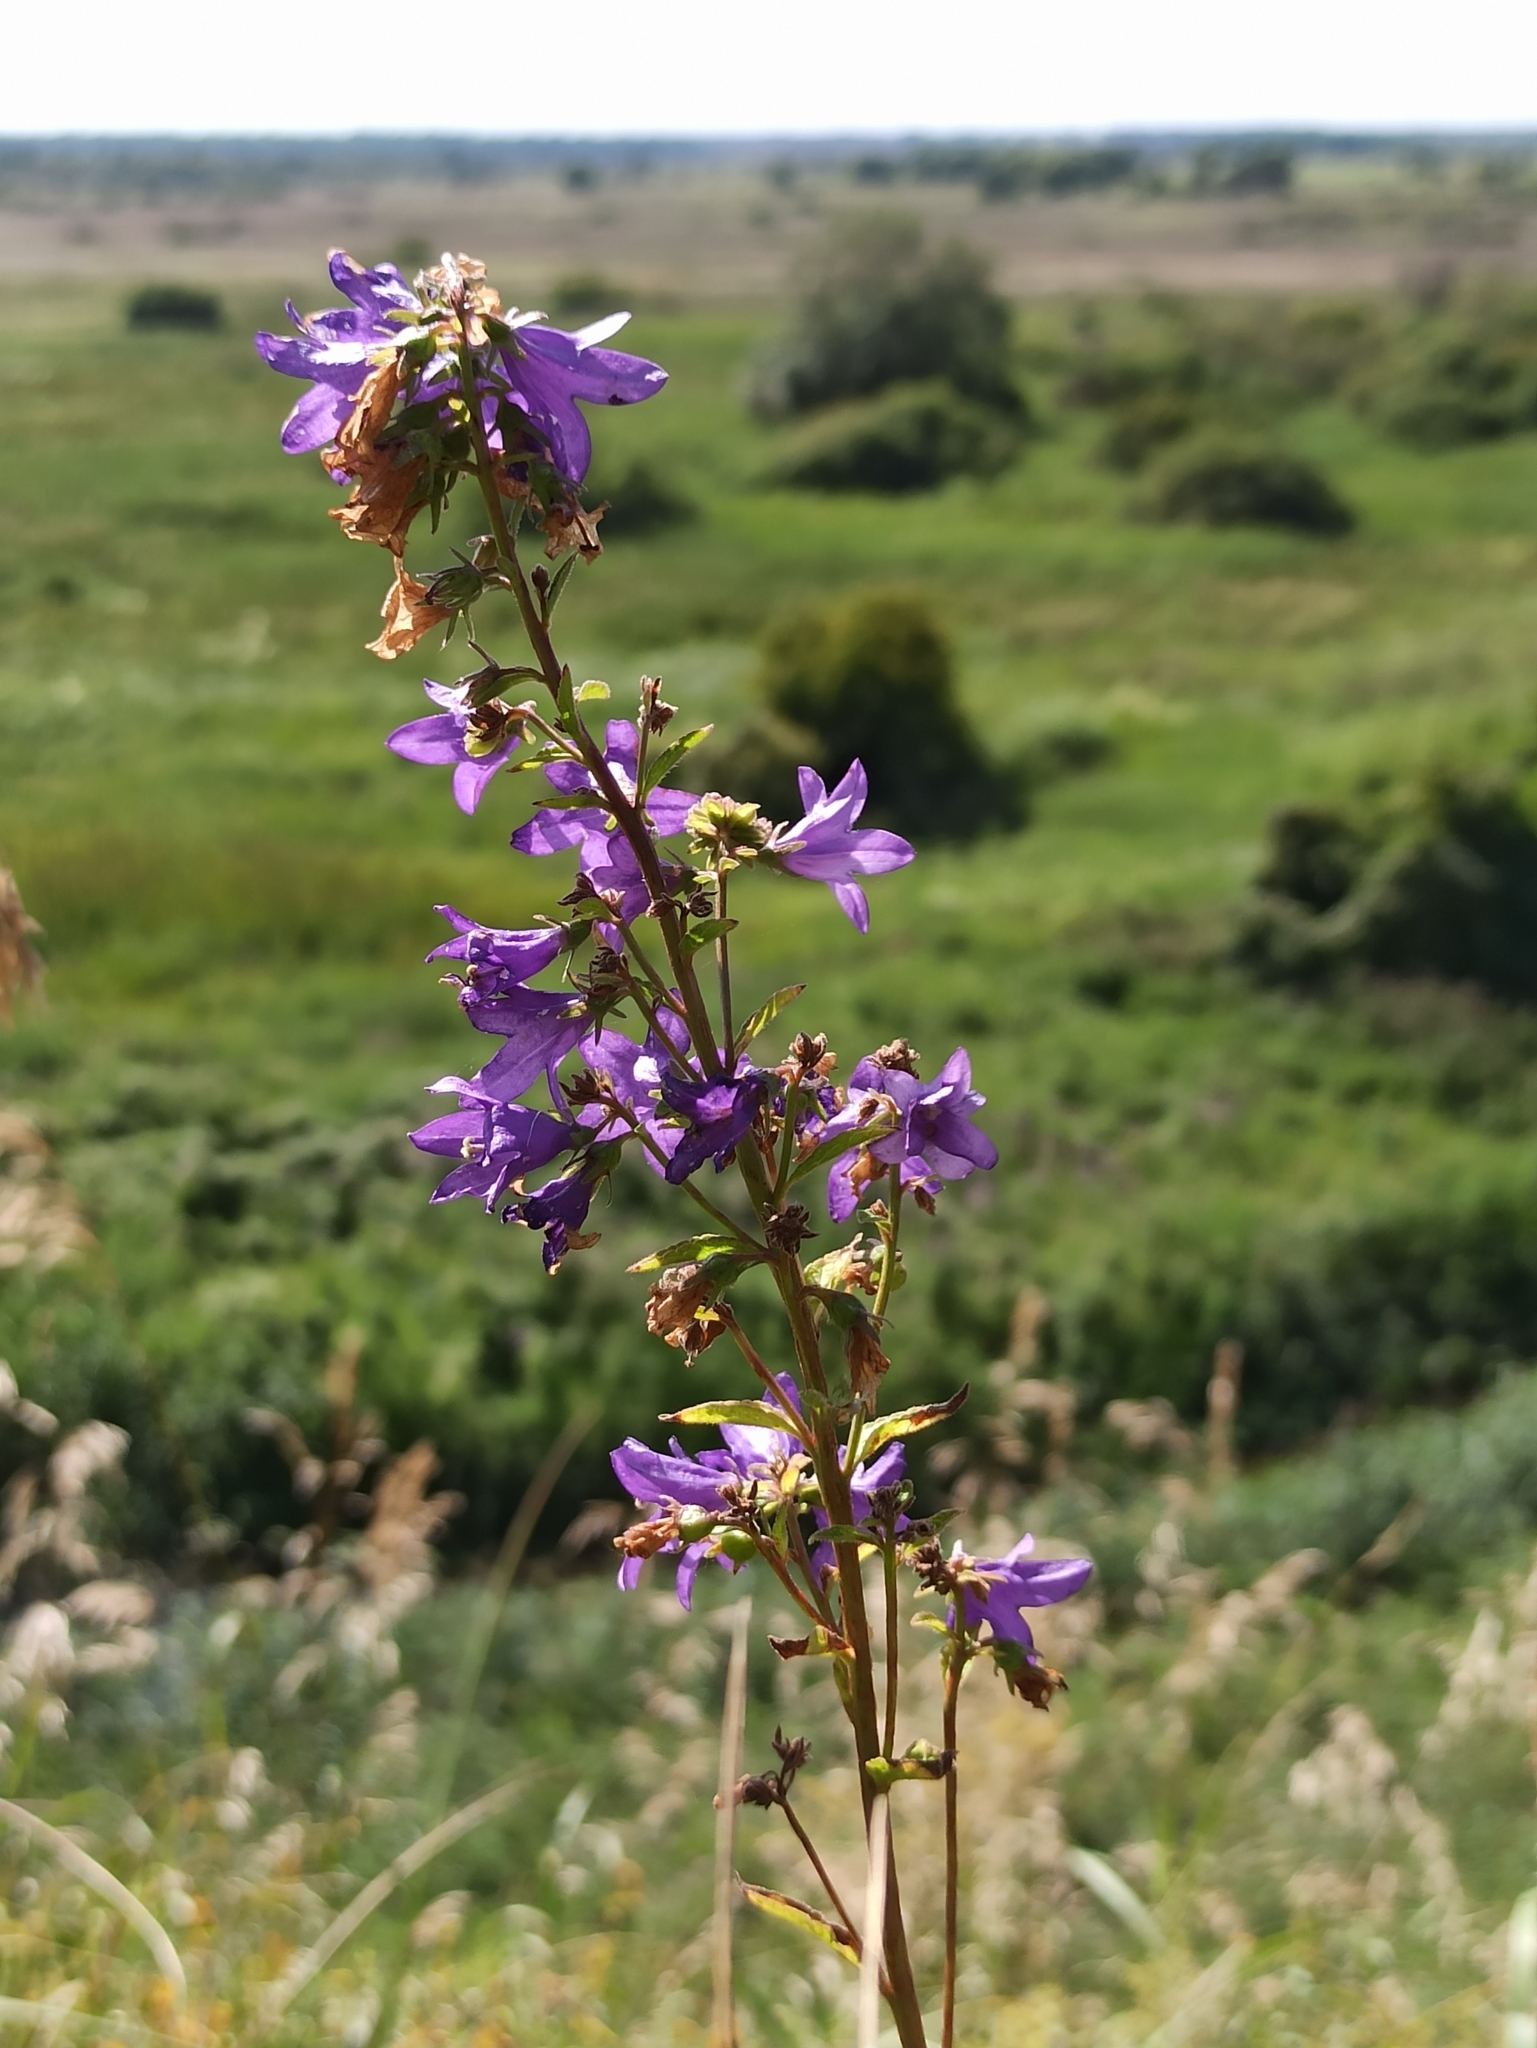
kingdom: Plantae
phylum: Tracheophyta
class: Magnoliopsida
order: Asterales
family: Campanulaceae
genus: Campanula
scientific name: Campanula glomerata
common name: Clustered bellflower
